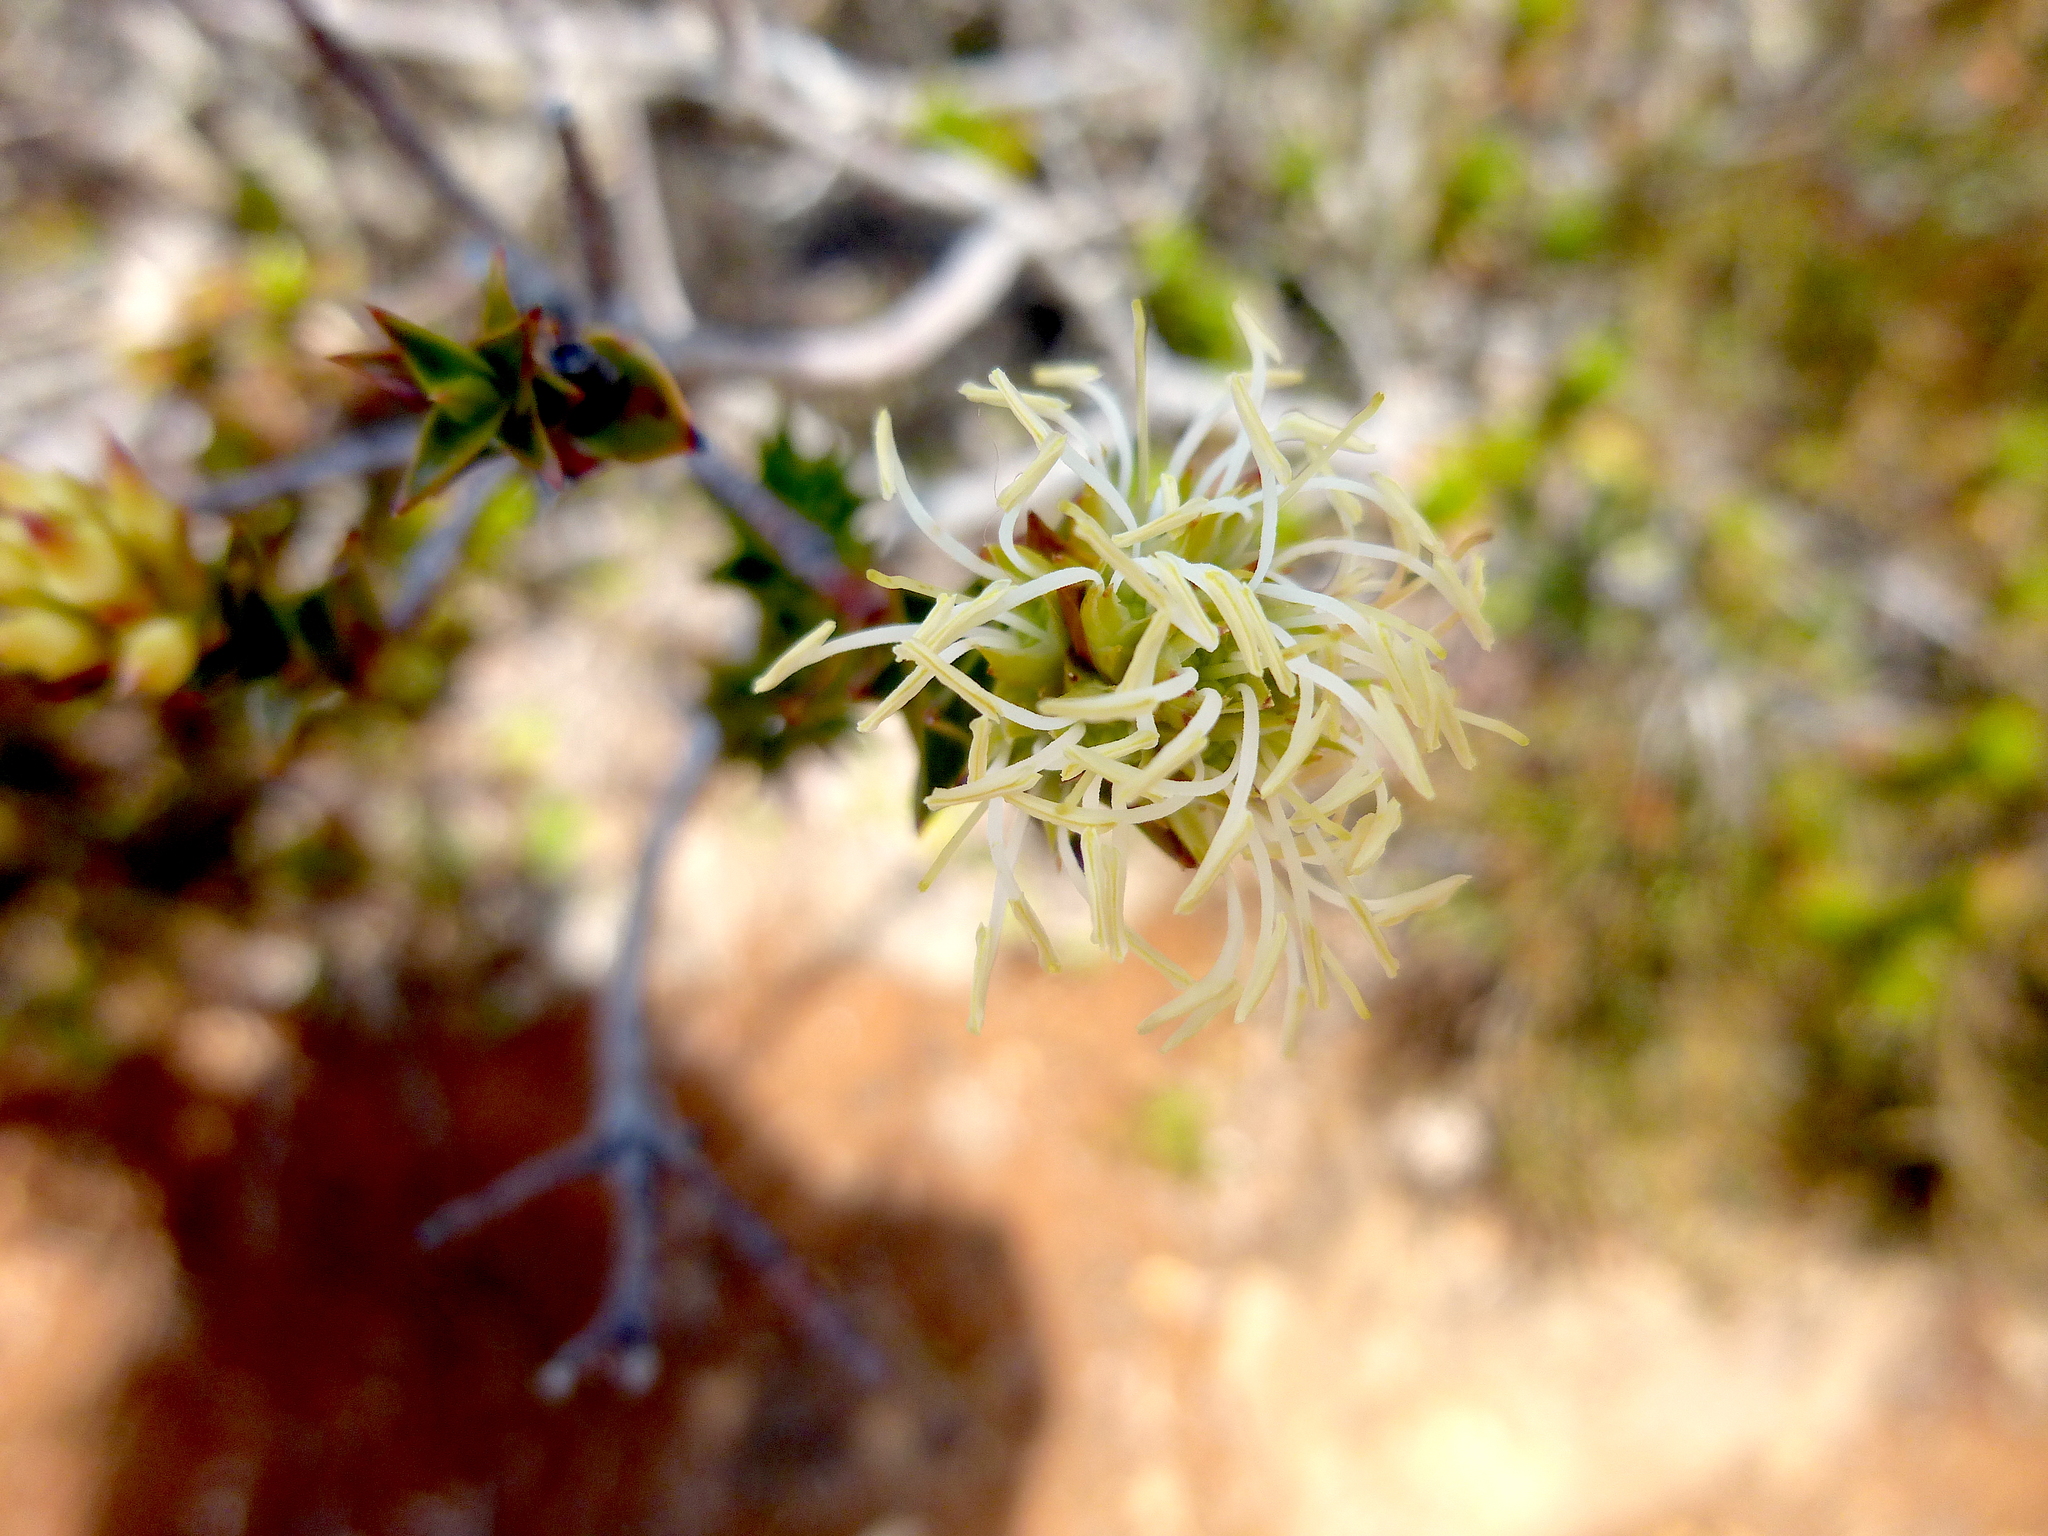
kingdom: Plantae
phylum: Tracheophyta
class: Magnoliopsida
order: Ericales
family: Ericaceae
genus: Dracophyllum
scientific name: Dracophyllum sprengelioides
